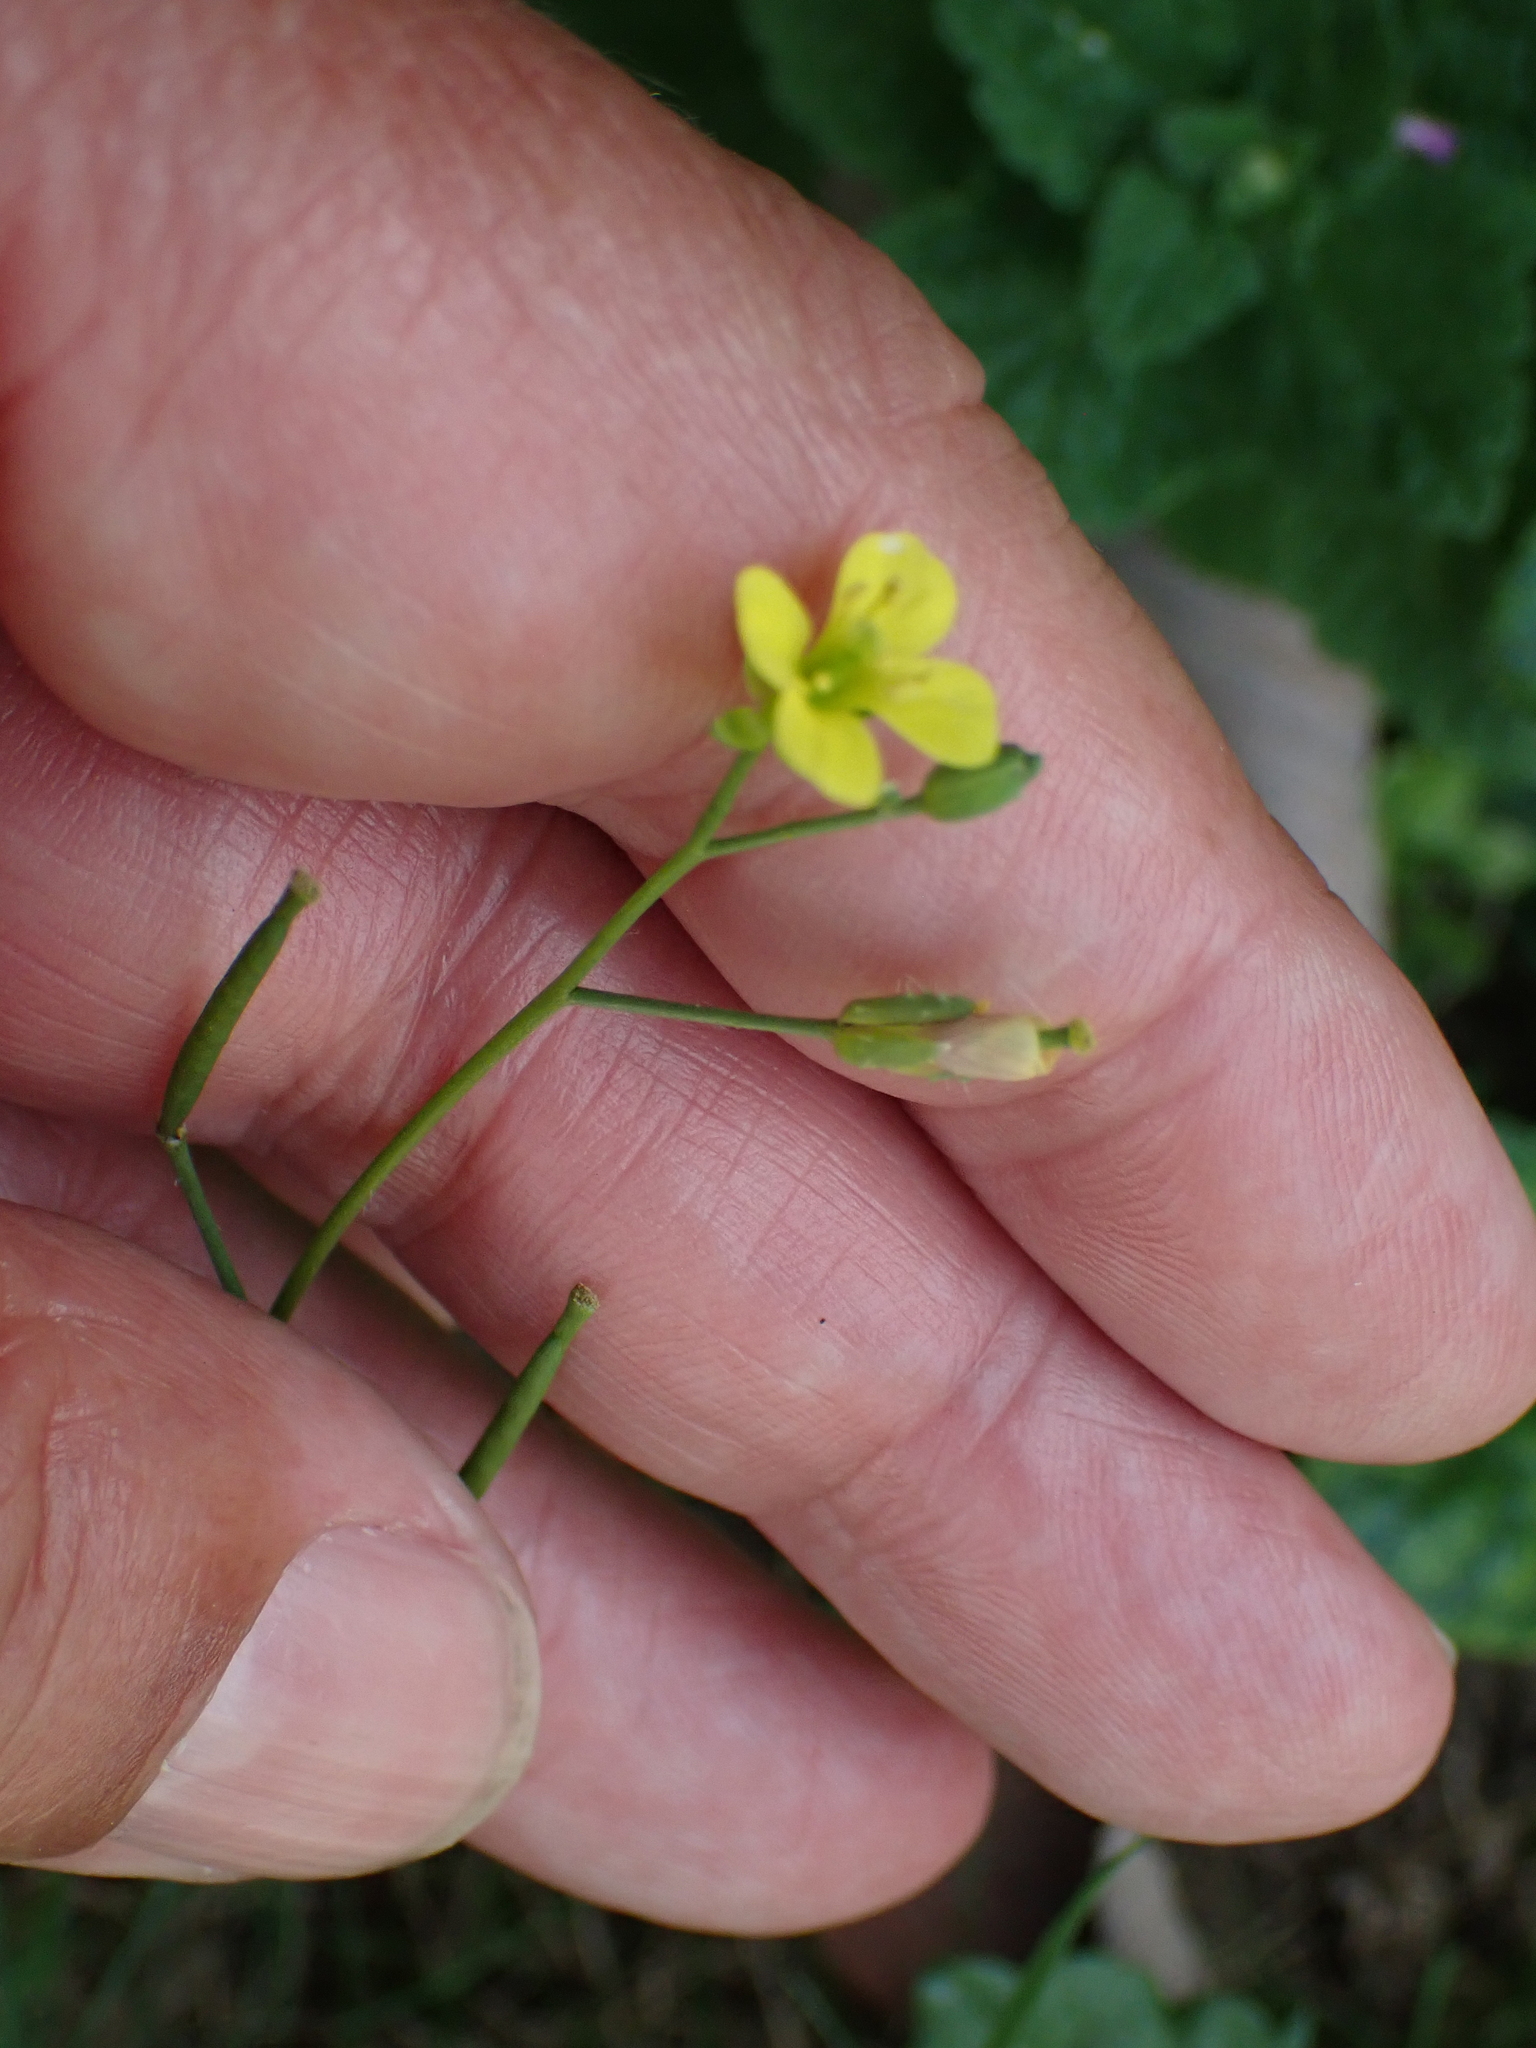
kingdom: Plantae
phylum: Tracheophyta
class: Magnoliopsida
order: Brassicales
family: Brassicaceae
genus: Diplotaxis
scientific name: Diplotaxis muralis
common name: Annual wall-rocket
